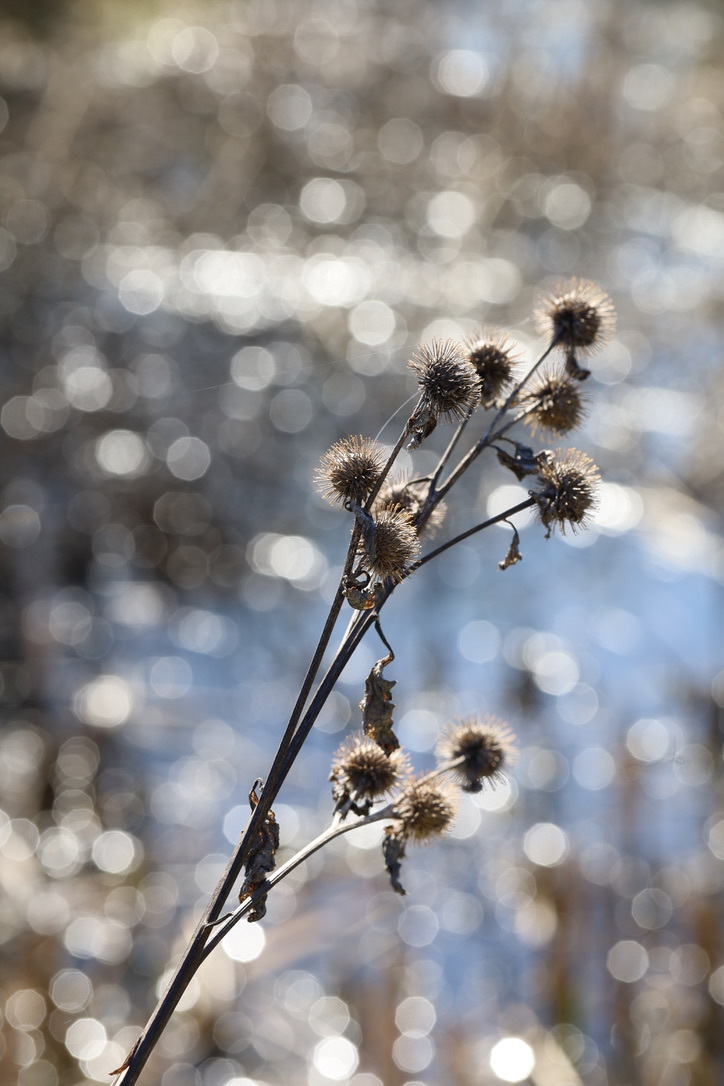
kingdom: Plantae
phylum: Tracheophyta
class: Magnoliopsida
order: Asterales
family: Asteraceae
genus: Arctium
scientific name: Arctium lappa
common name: Greater burdock
